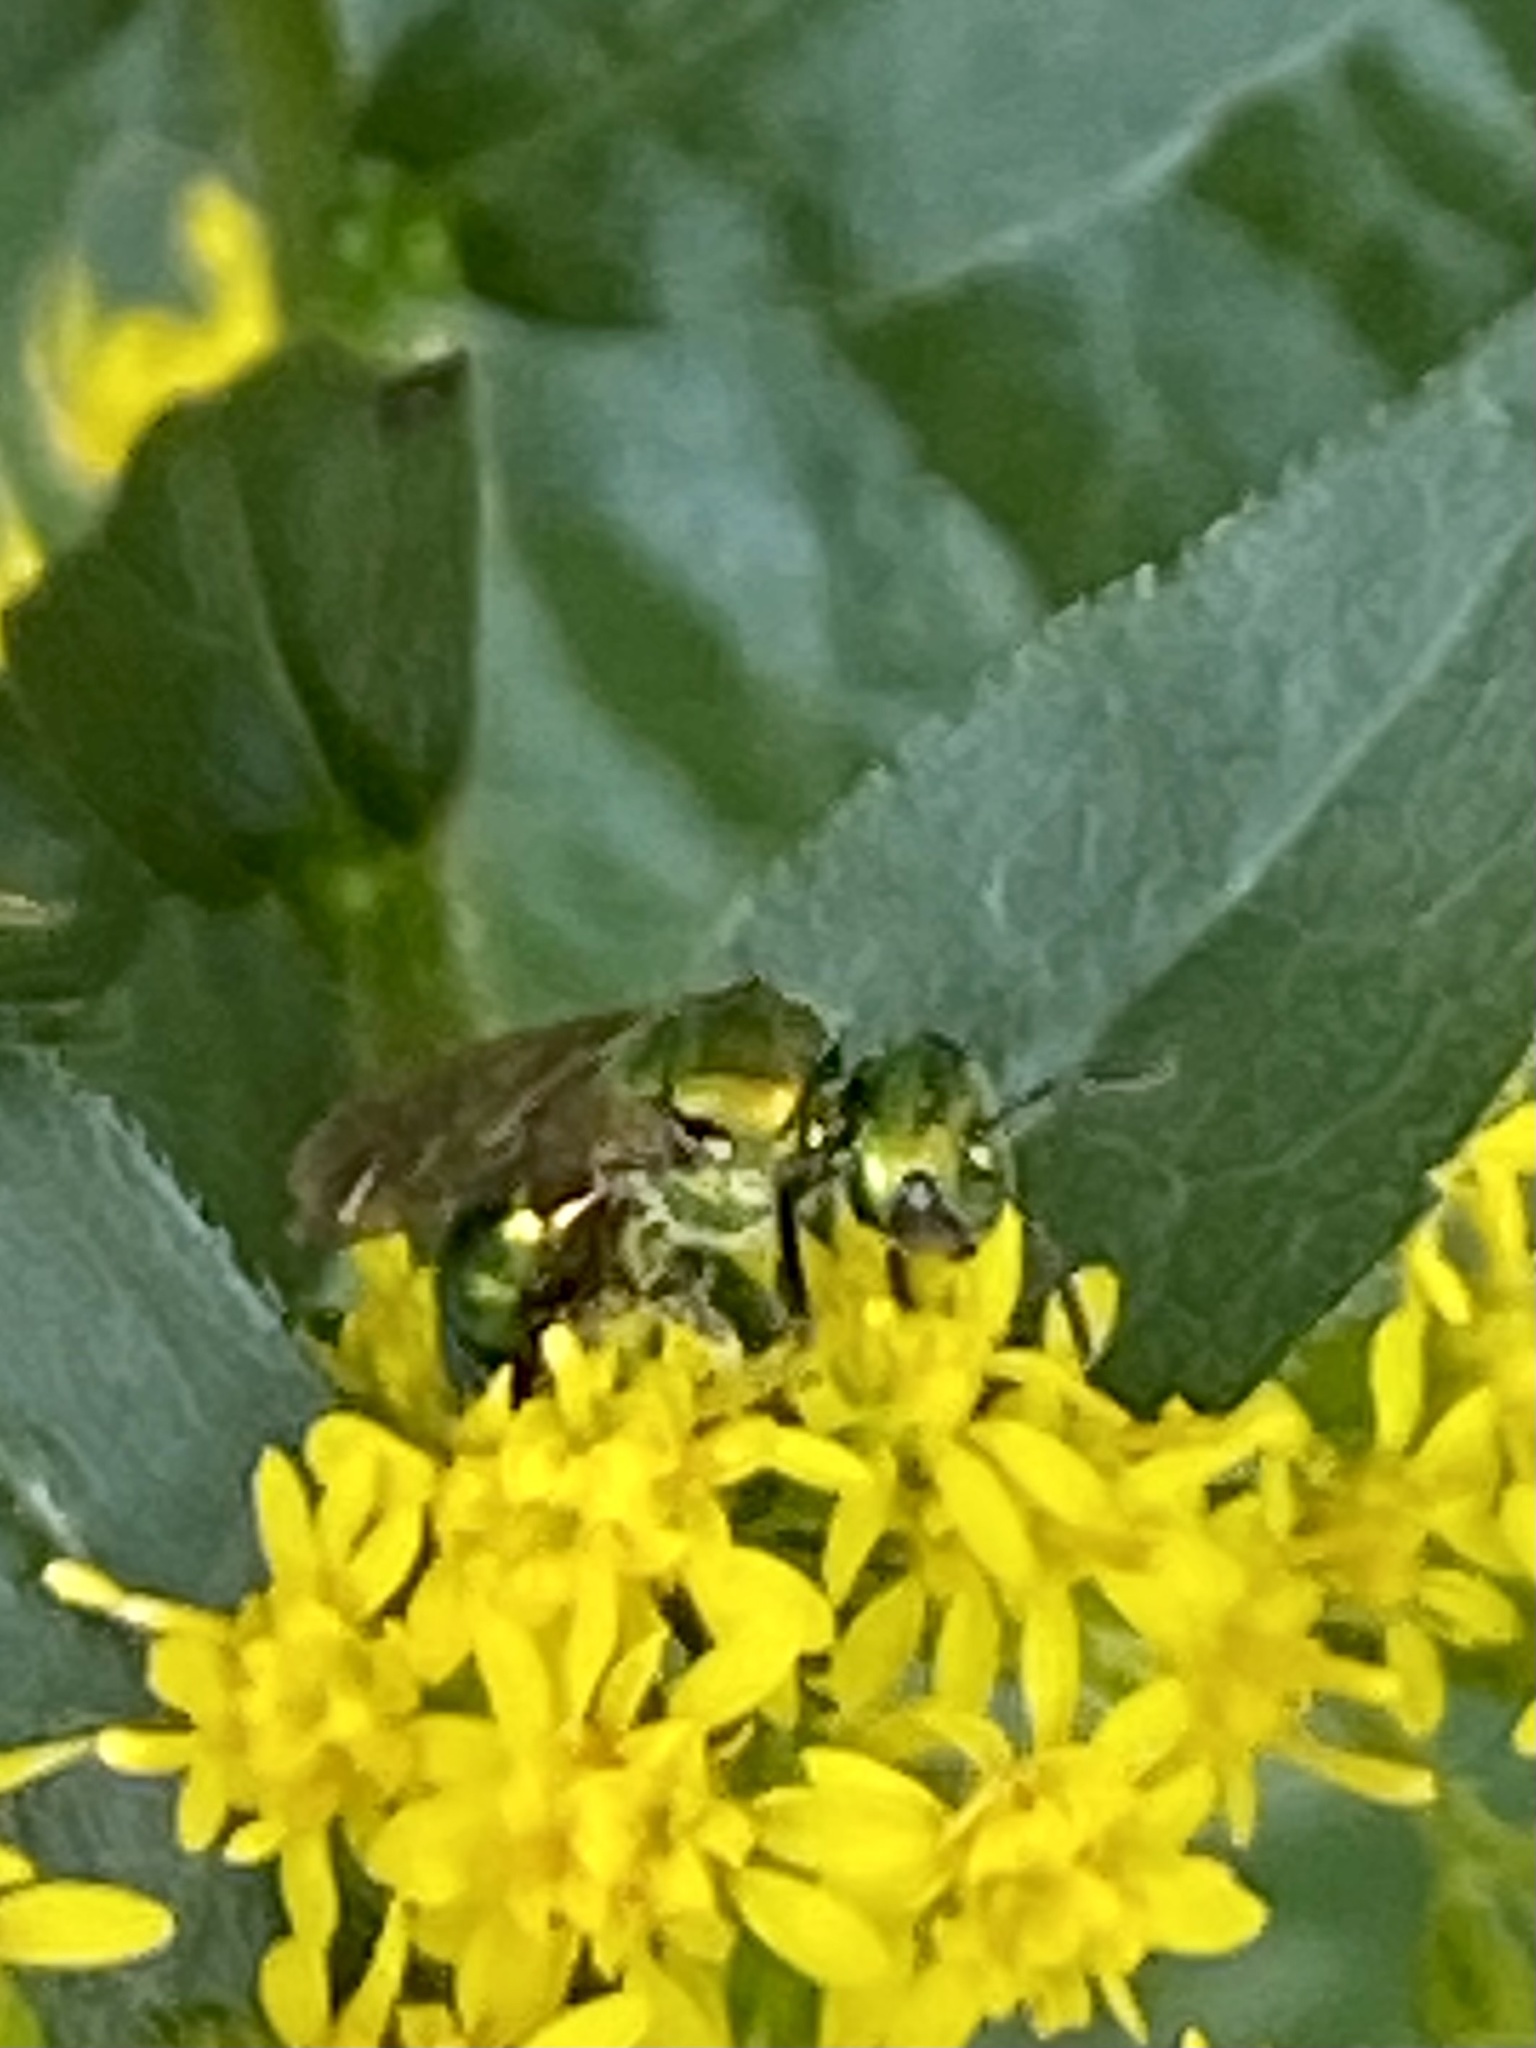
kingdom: Animalia
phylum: Arthropoda
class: Insecta
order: Hymenoptera
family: Halictidae
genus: Augochlora
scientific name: Augochlora pura
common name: Pure green sweat bee
